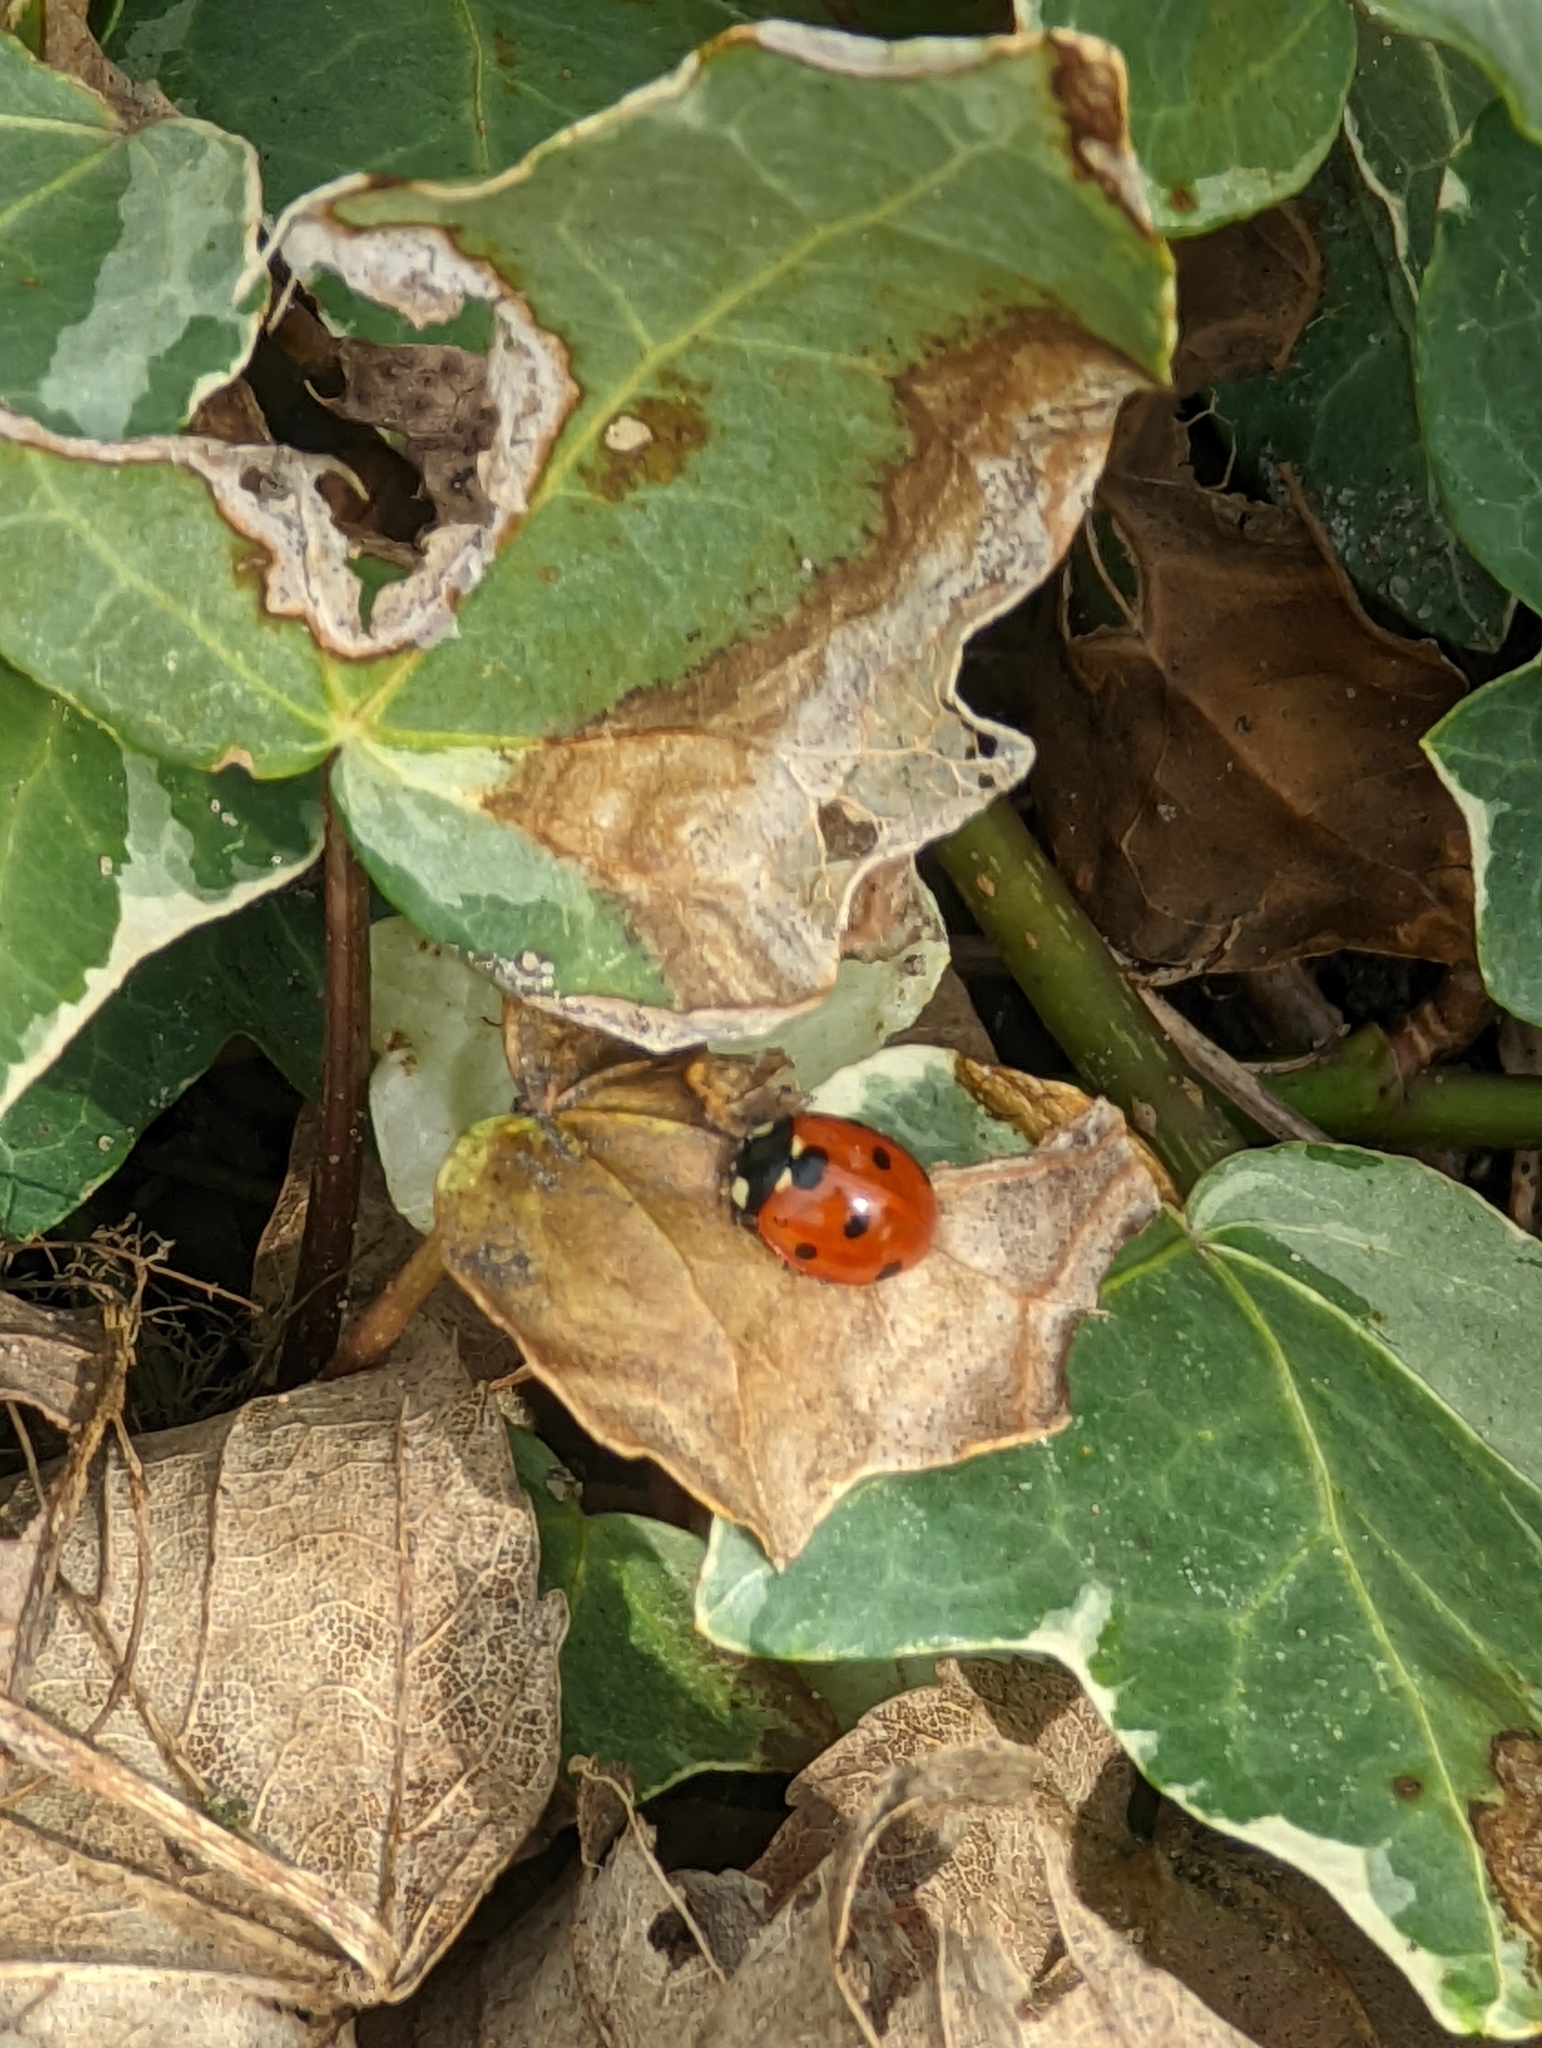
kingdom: Animalia
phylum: Arthropoda
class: Insecta
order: Coleoptera
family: Coccinellidae
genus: Coccinella
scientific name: Coccinella septempunctata
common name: Sevenspotted lady beetle
